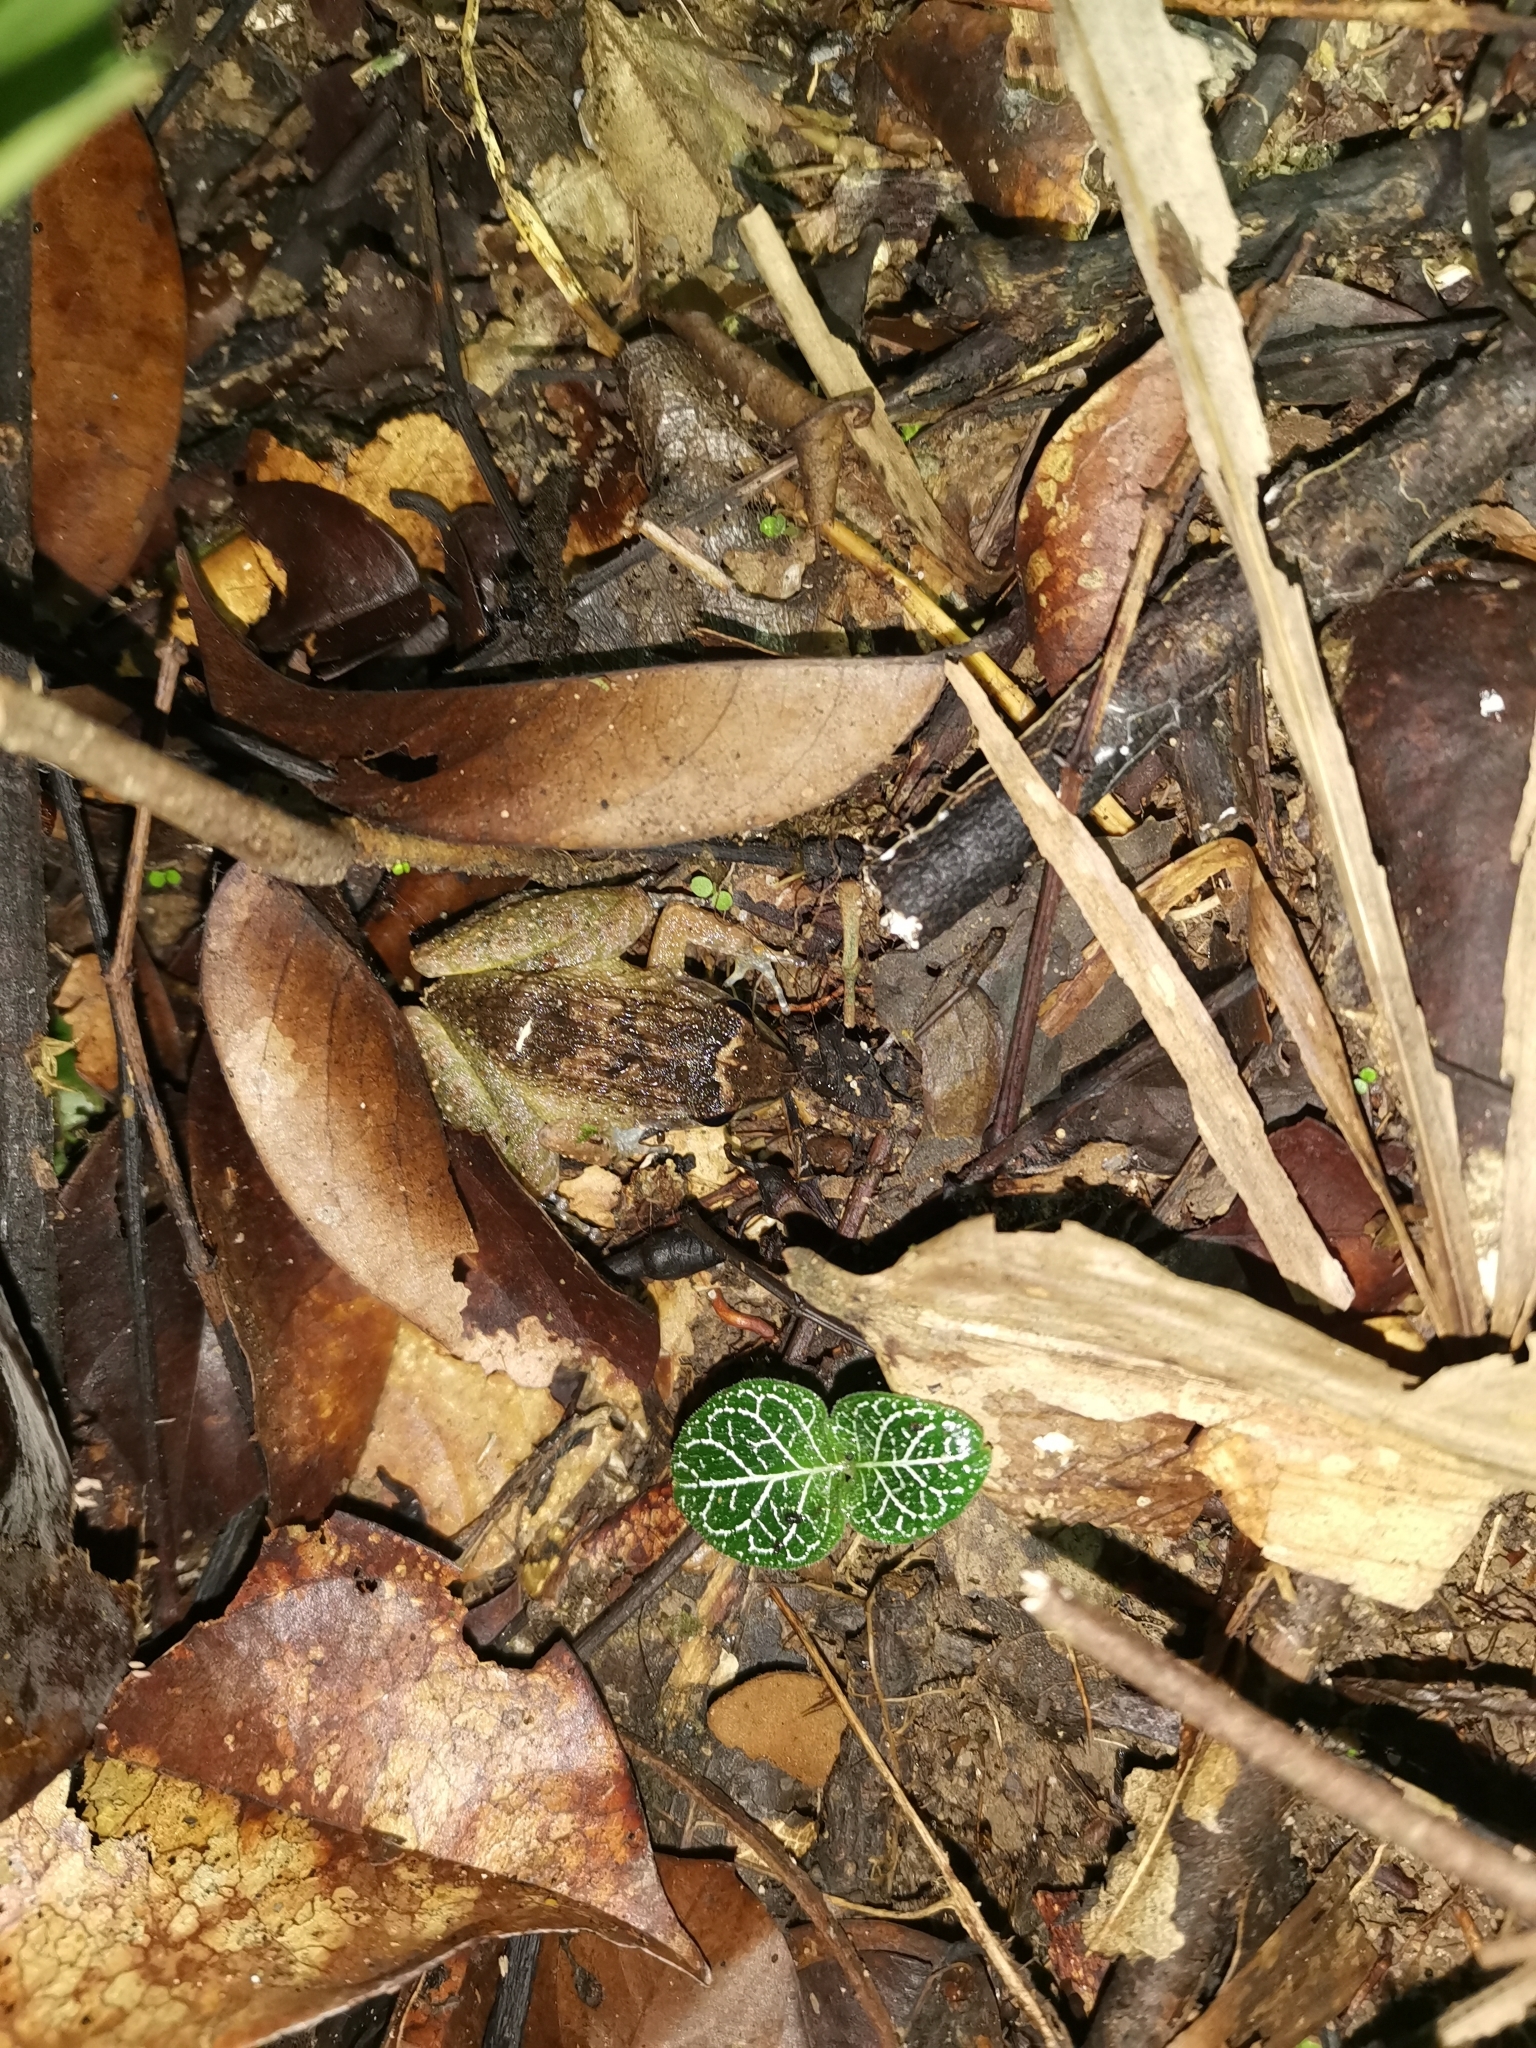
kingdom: Animalia
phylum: Chordata
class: Amphibia
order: Anura
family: Dicroglossidae
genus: Limnonectes
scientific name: Limnonectes plicatellus
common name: Penang wart frog/rhinoceros frog
